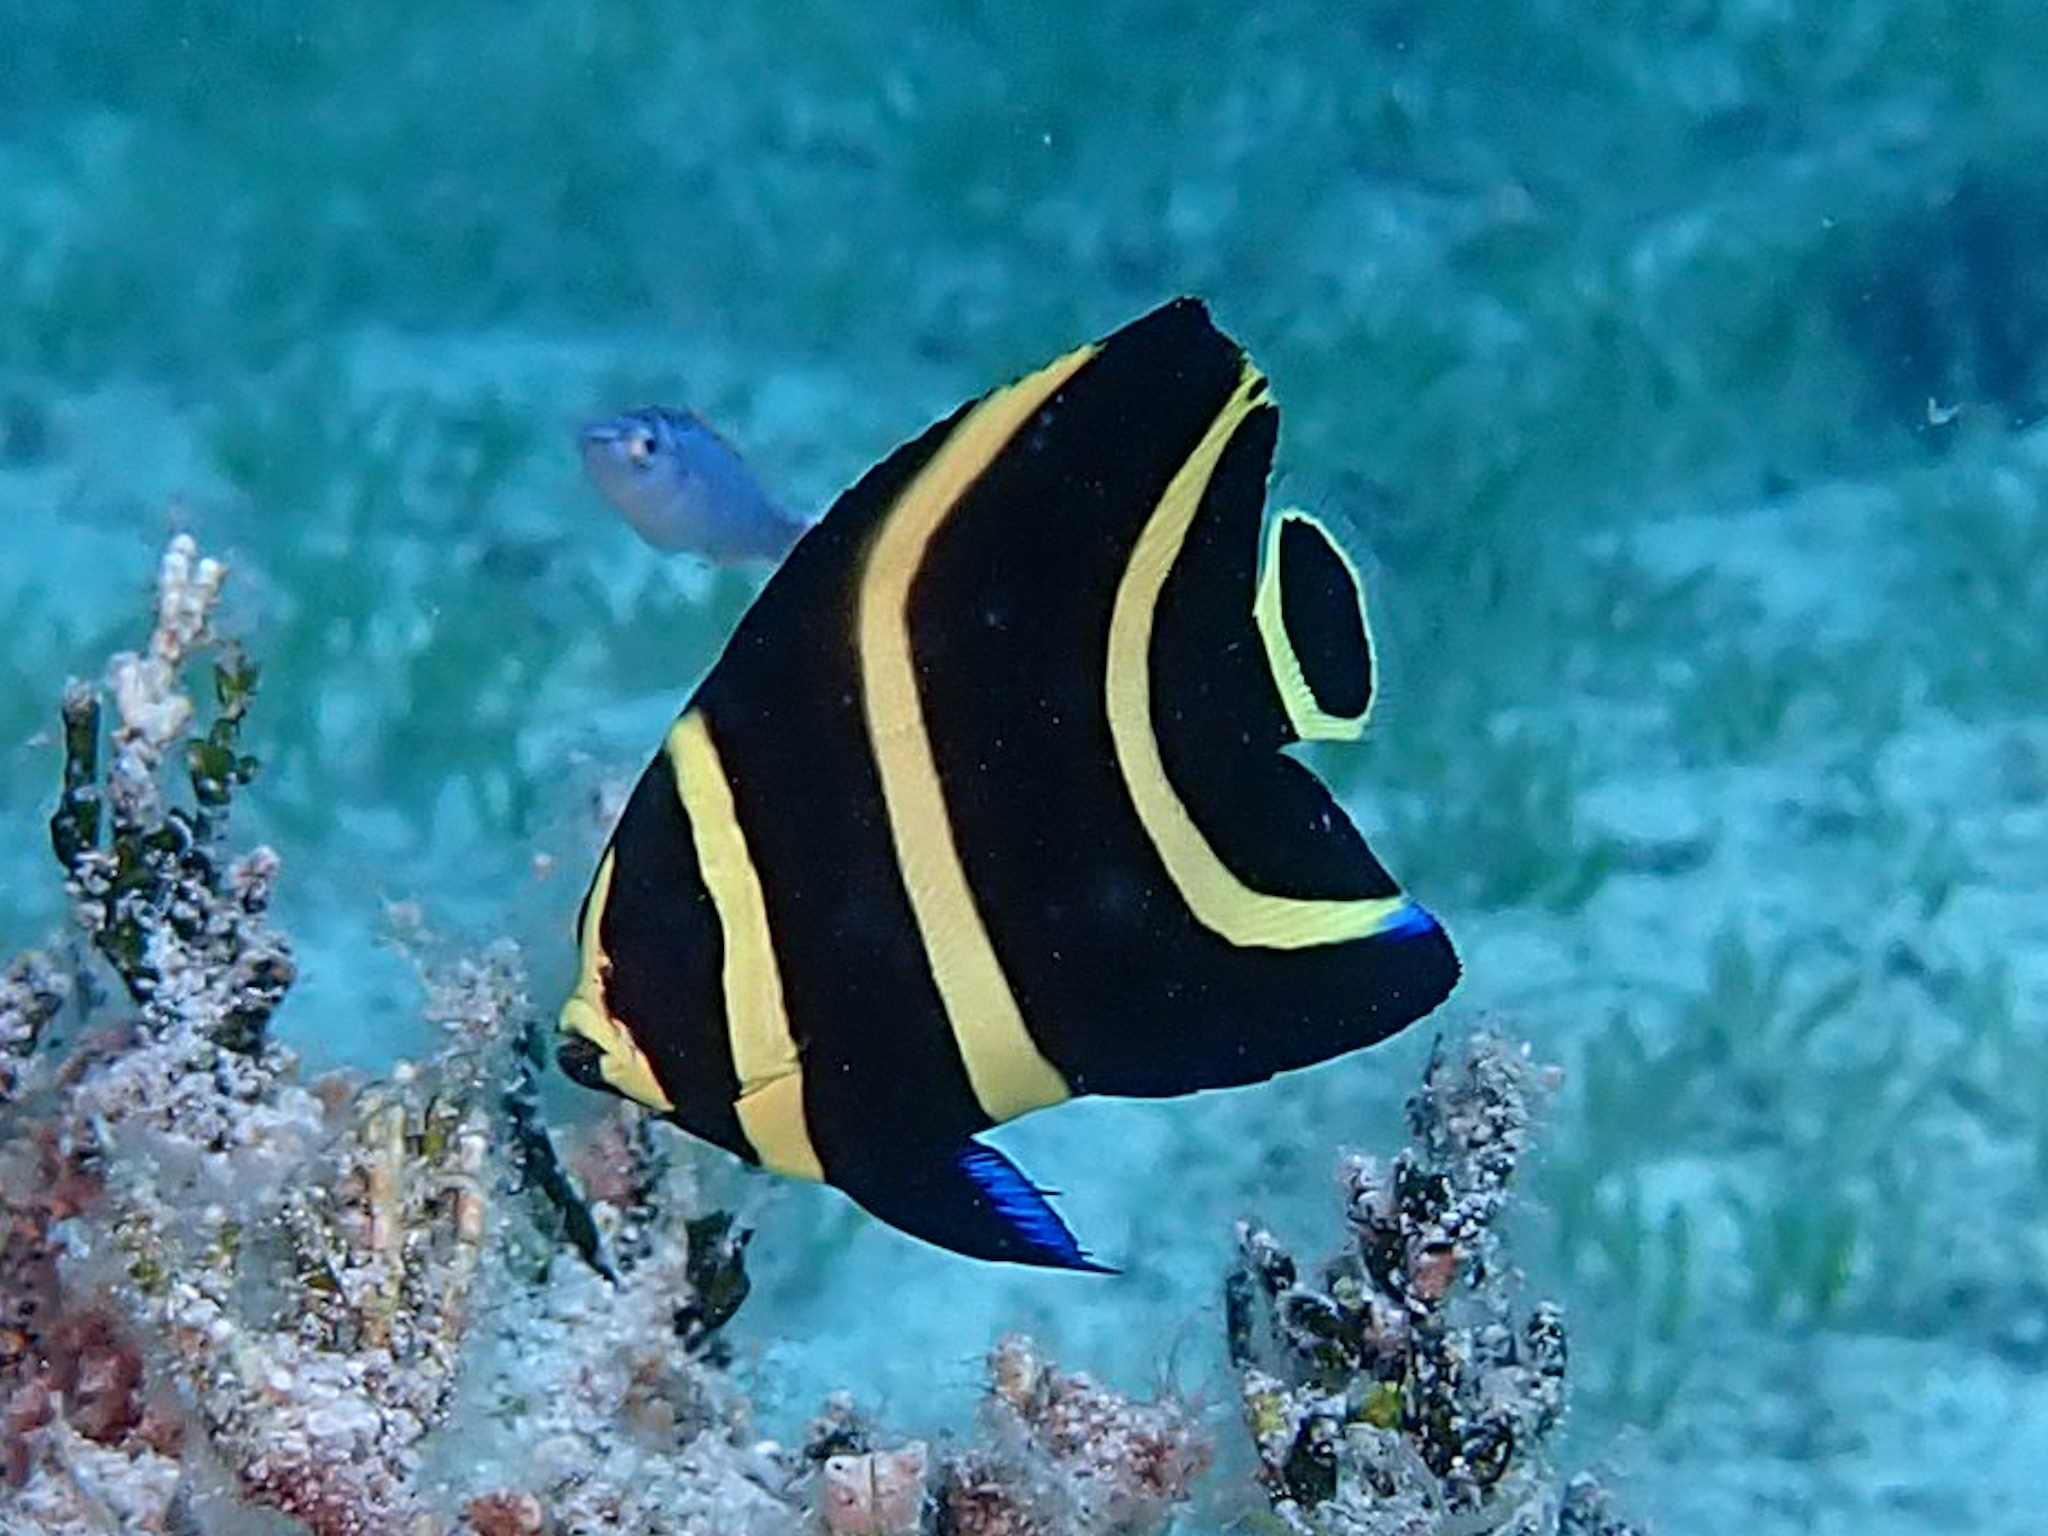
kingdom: Animalia
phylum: Chordata
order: Perciformes
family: Pomacanthidae
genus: Pomacanthus
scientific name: Pomacanthus paru
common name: French angelfish
